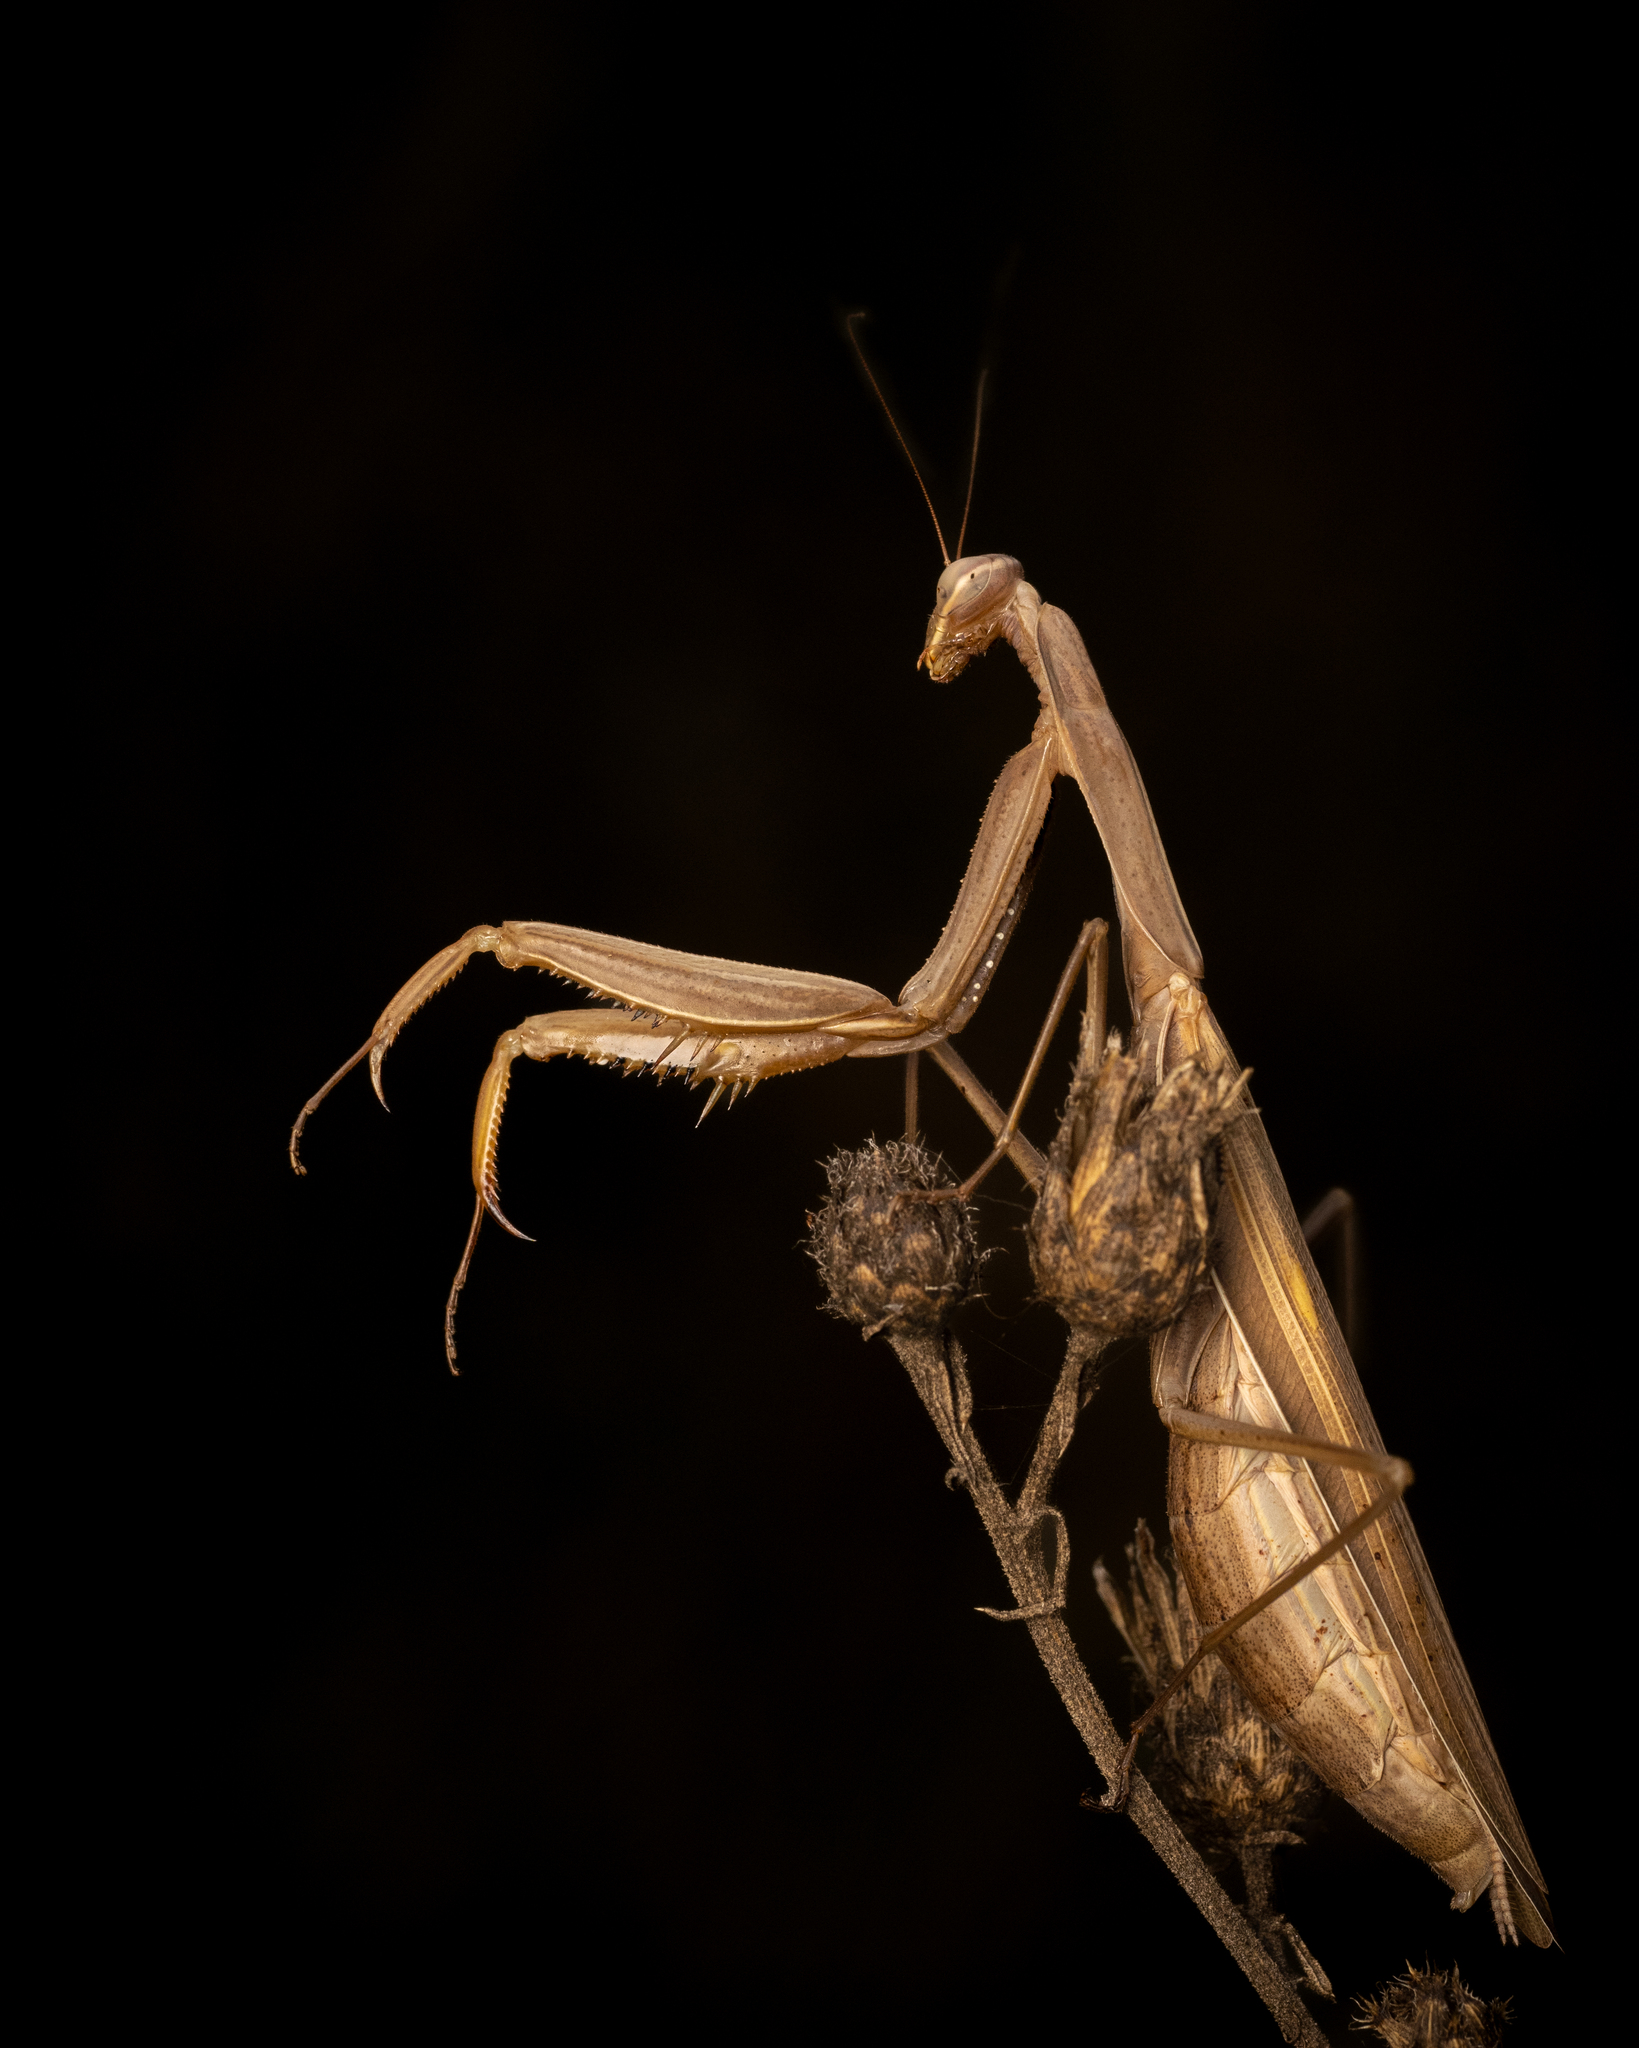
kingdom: Animalia
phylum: Arthropoda
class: Insecta
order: Mantodea
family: Mantidae
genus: Mantis
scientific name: Mantis religiosa
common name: Praying mantis
